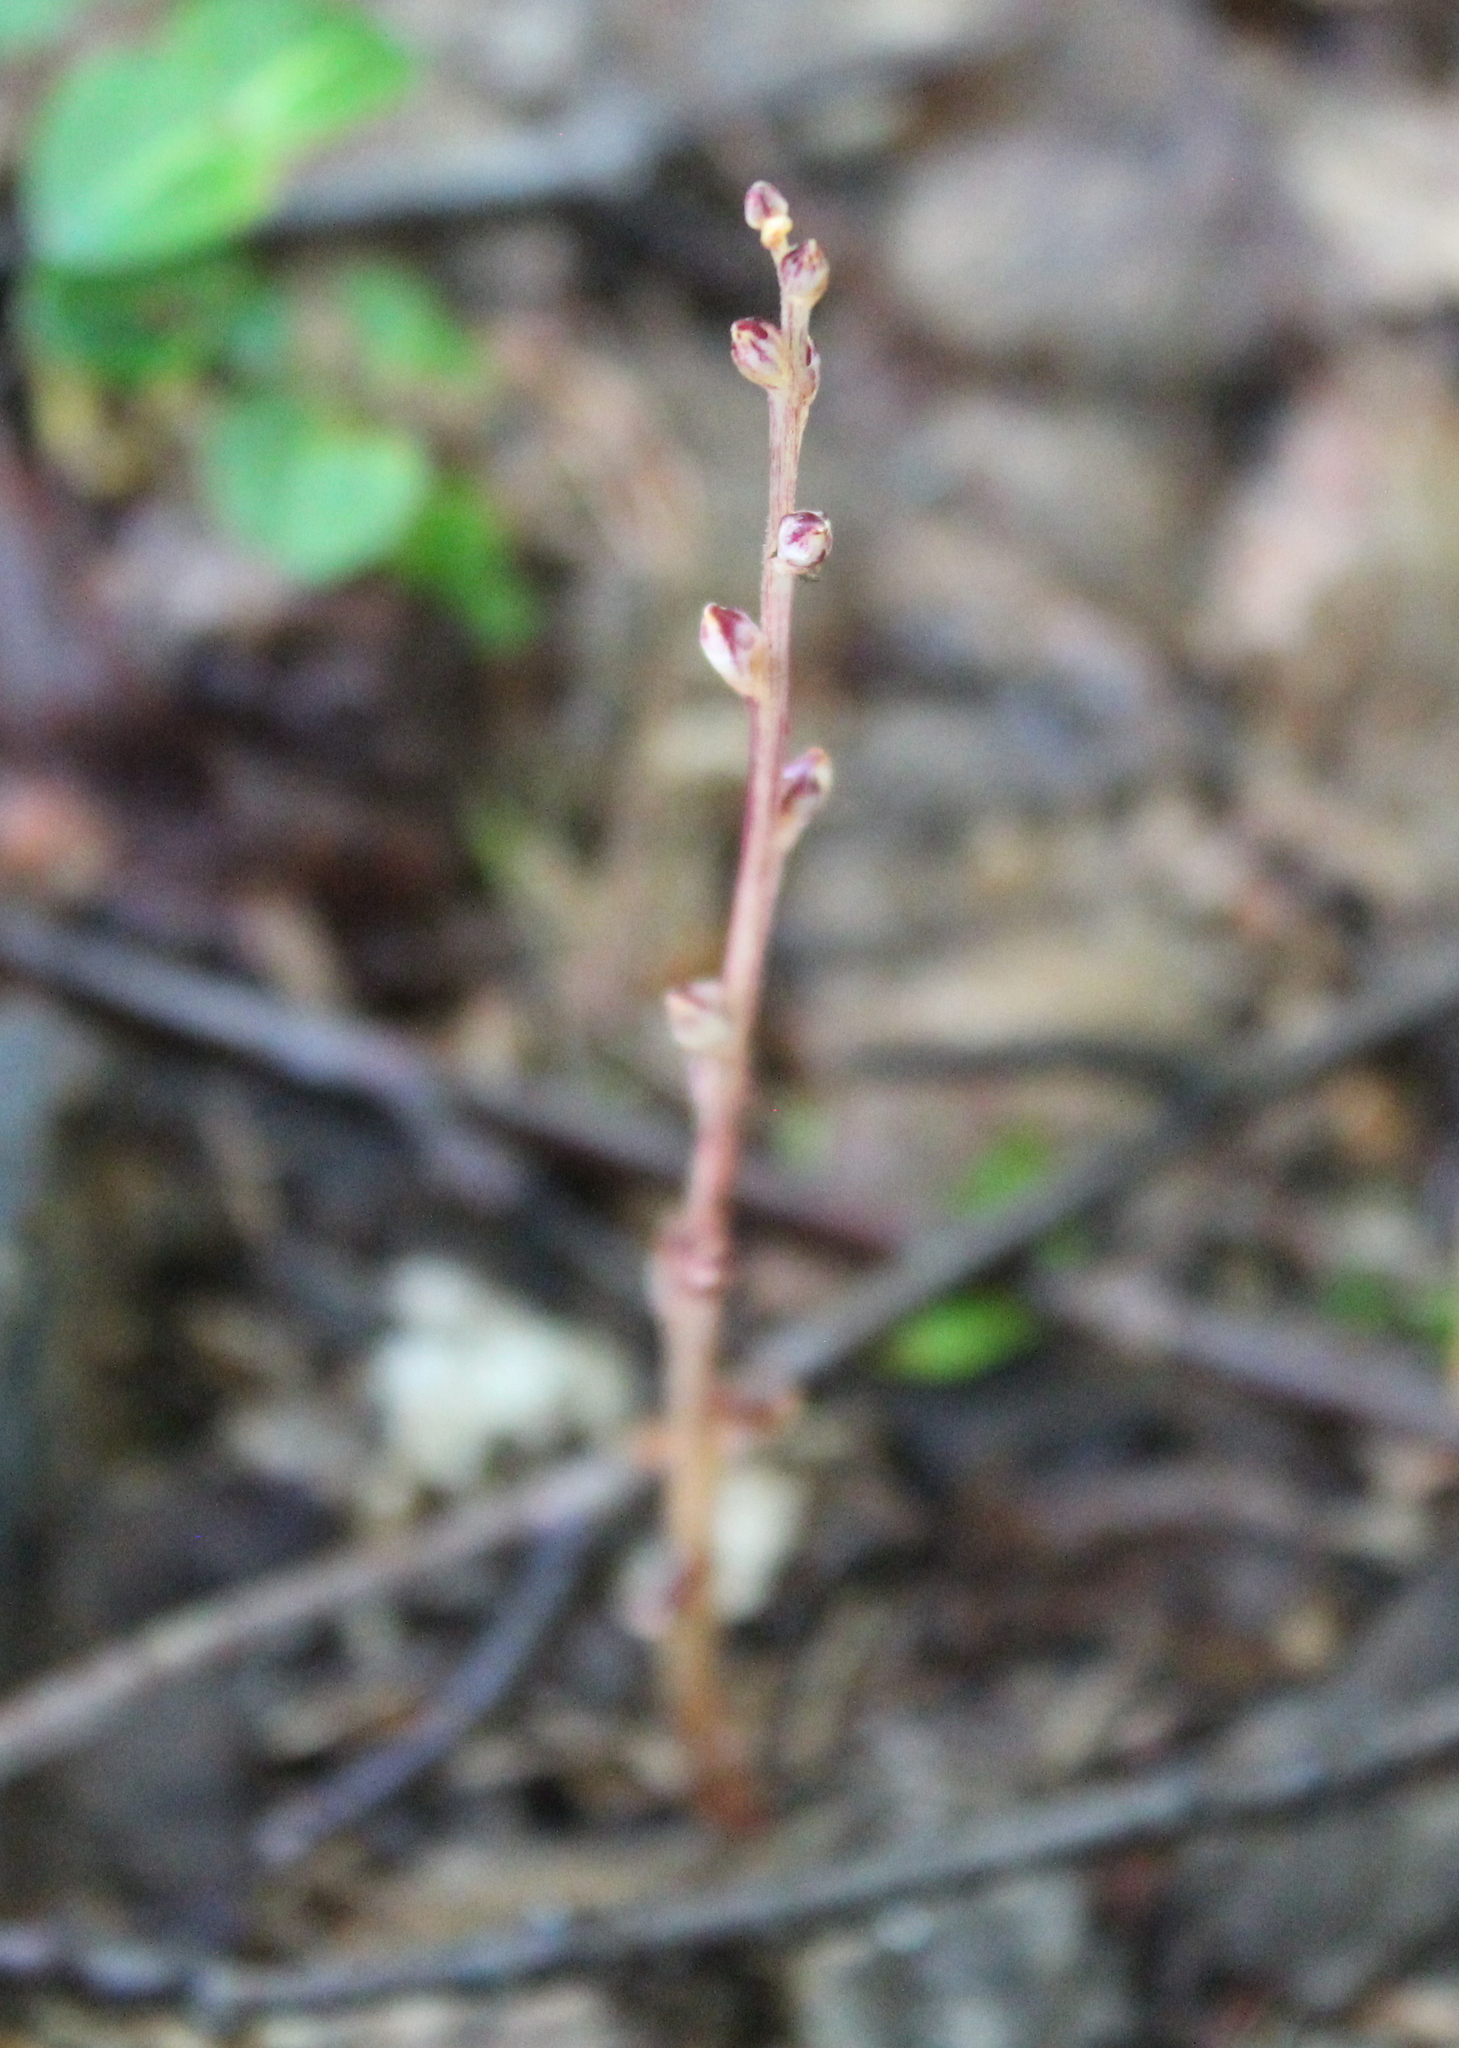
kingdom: Plantae
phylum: Tracheophyta
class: Magnoliopsida
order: Lamiales
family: Orobanchaceae
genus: Epifagus
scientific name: Epifagus virginiana
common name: Beechdrops
